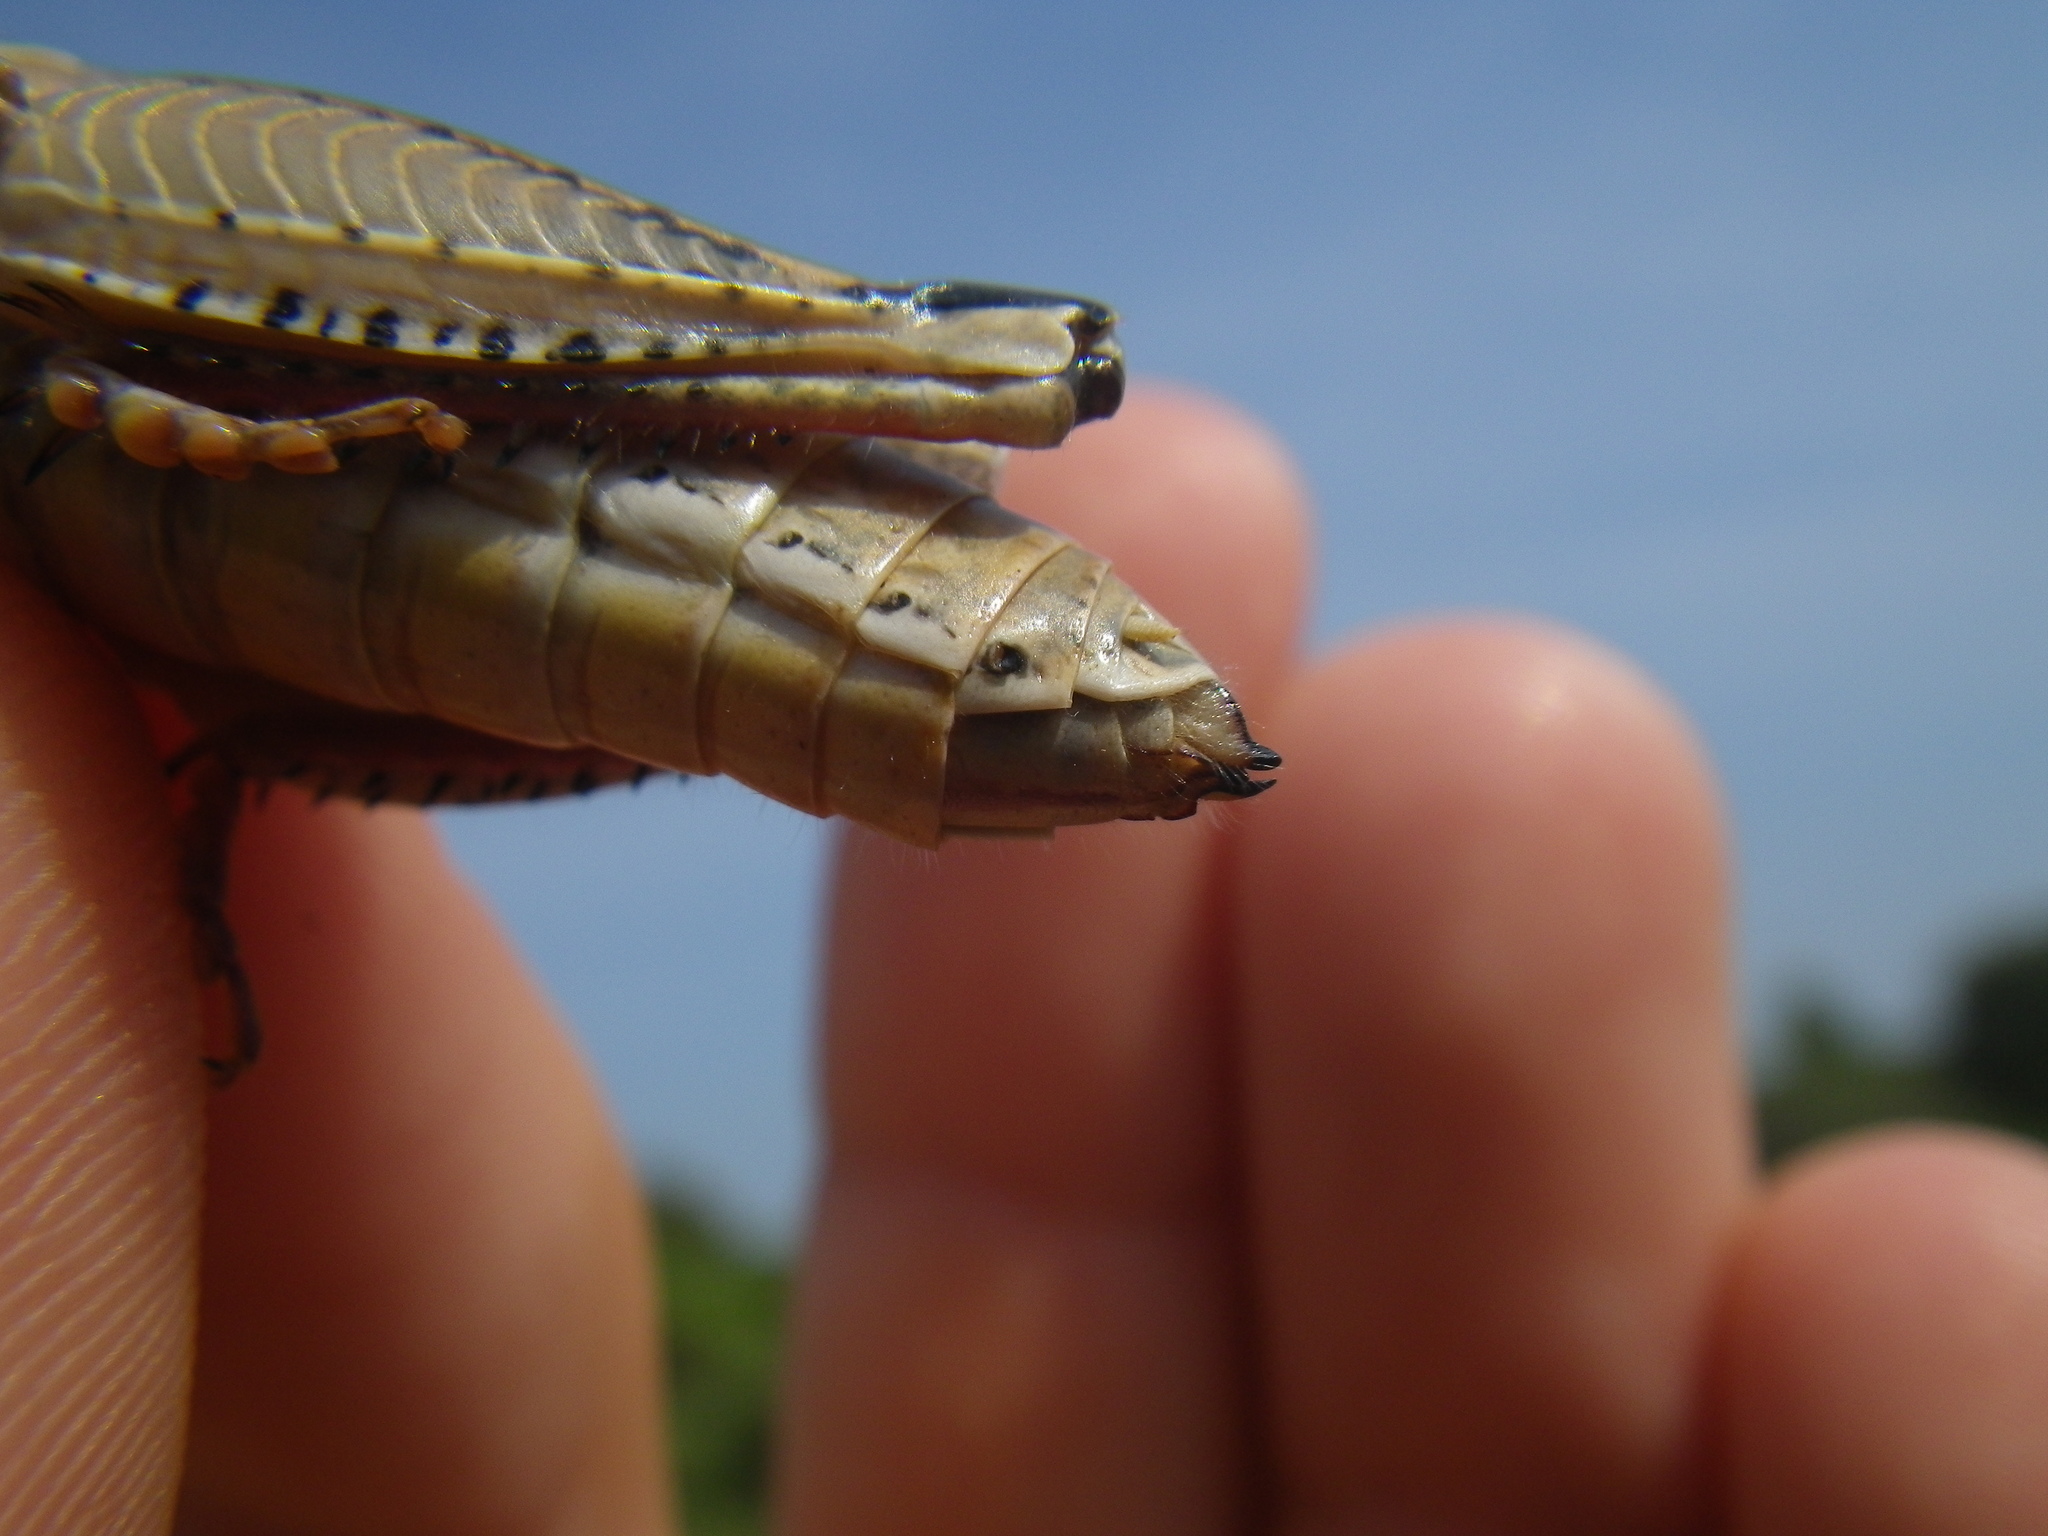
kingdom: Animalia
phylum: Arthropoda
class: Insecta
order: Orthoptera
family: Acrididae
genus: Calliptamus
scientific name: Calliptamus wattenwylianus
